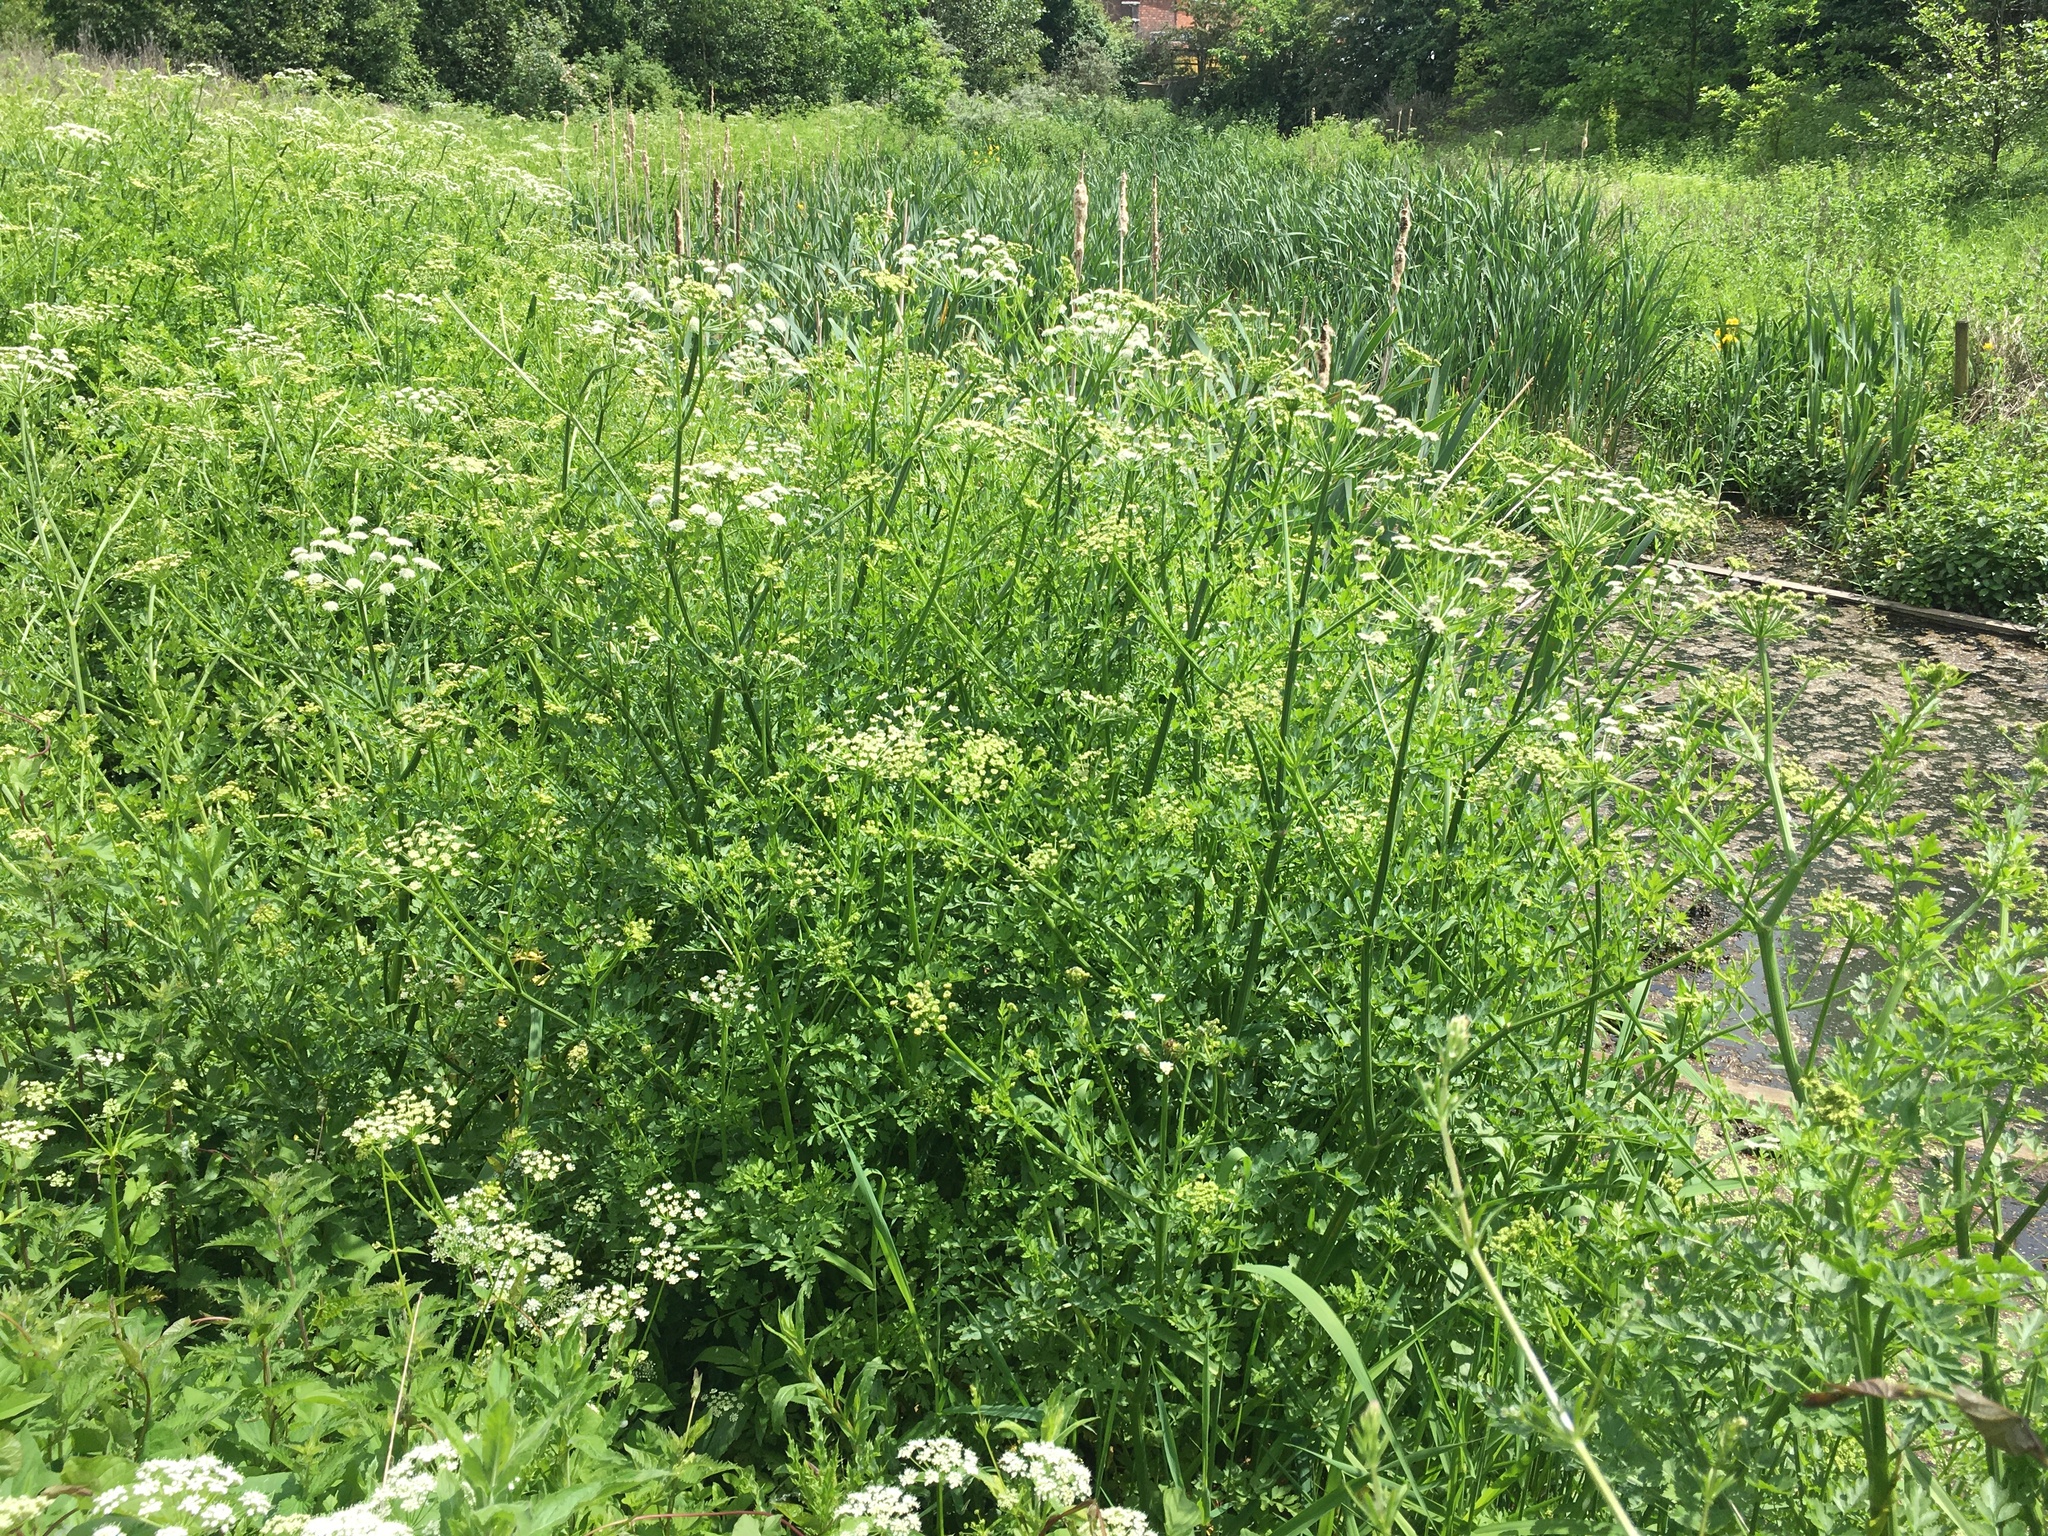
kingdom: Plantae
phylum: Tracheophyta
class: Magnoliopsida
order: Apiales
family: Apiaceae
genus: Oenanthe
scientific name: Oenanthe crocata
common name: Hemlock water-dropwort
